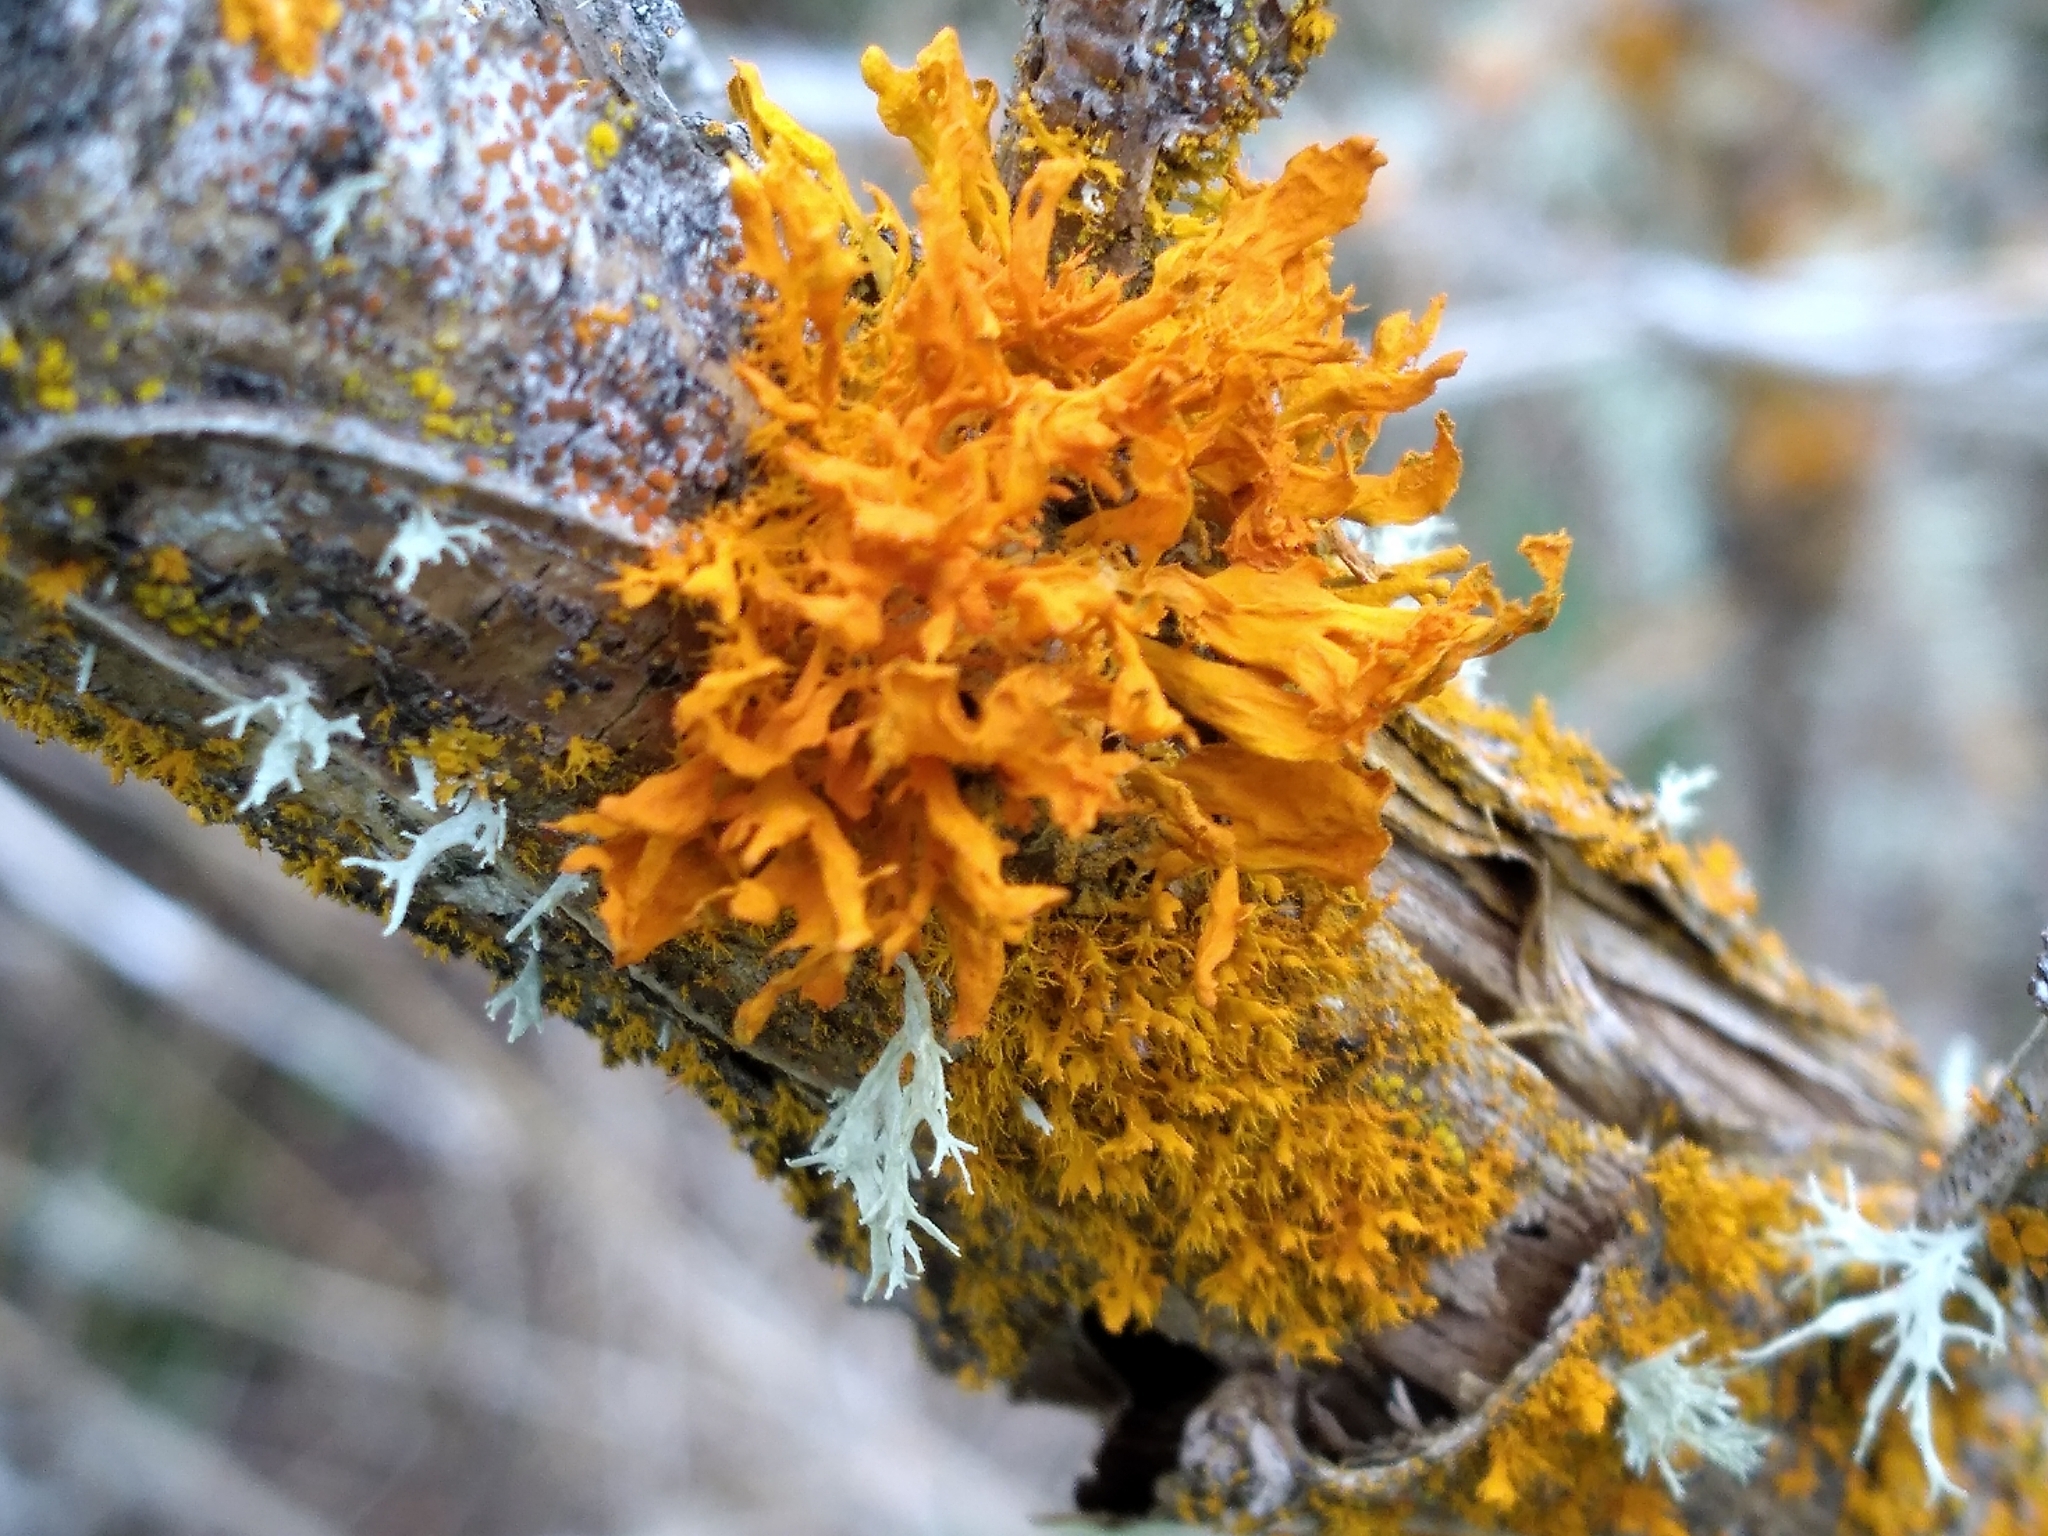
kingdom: Fungi
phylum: Ascomycota
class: Lecanoromycetes
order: Teloschistales
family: Teloschistaceae
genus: Teloschistes
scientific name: Teloschistes velifer
